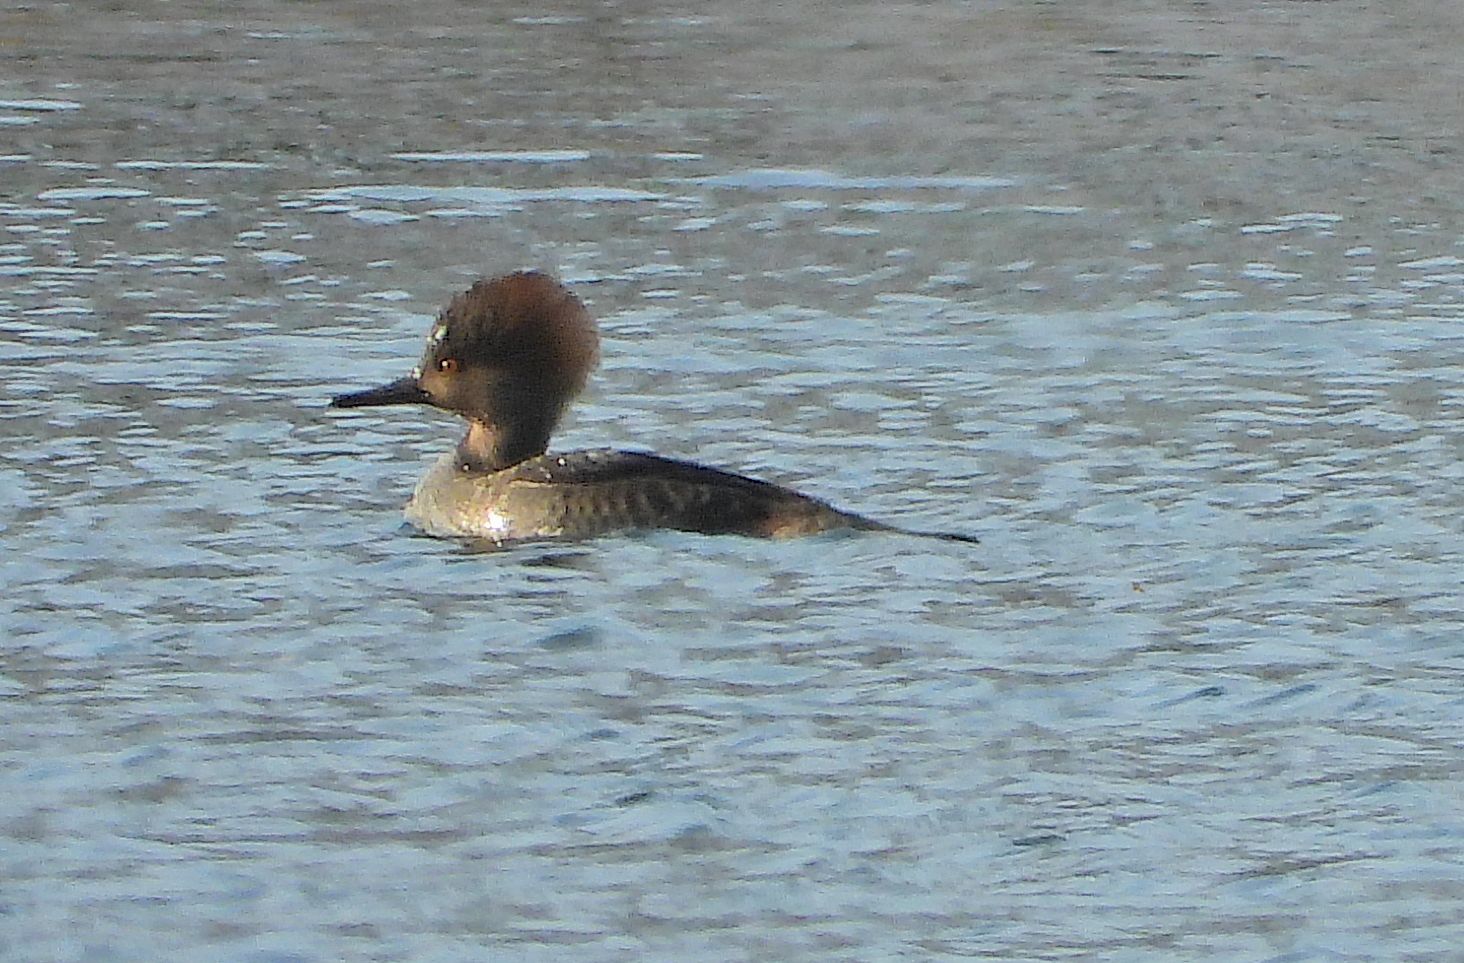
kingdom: Animalia
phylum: Chordata
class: Aves
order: Anseriformes
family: Anatidae
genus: Lophodytes
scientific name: Lophodytes cucullatus
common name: Hooded merganser
